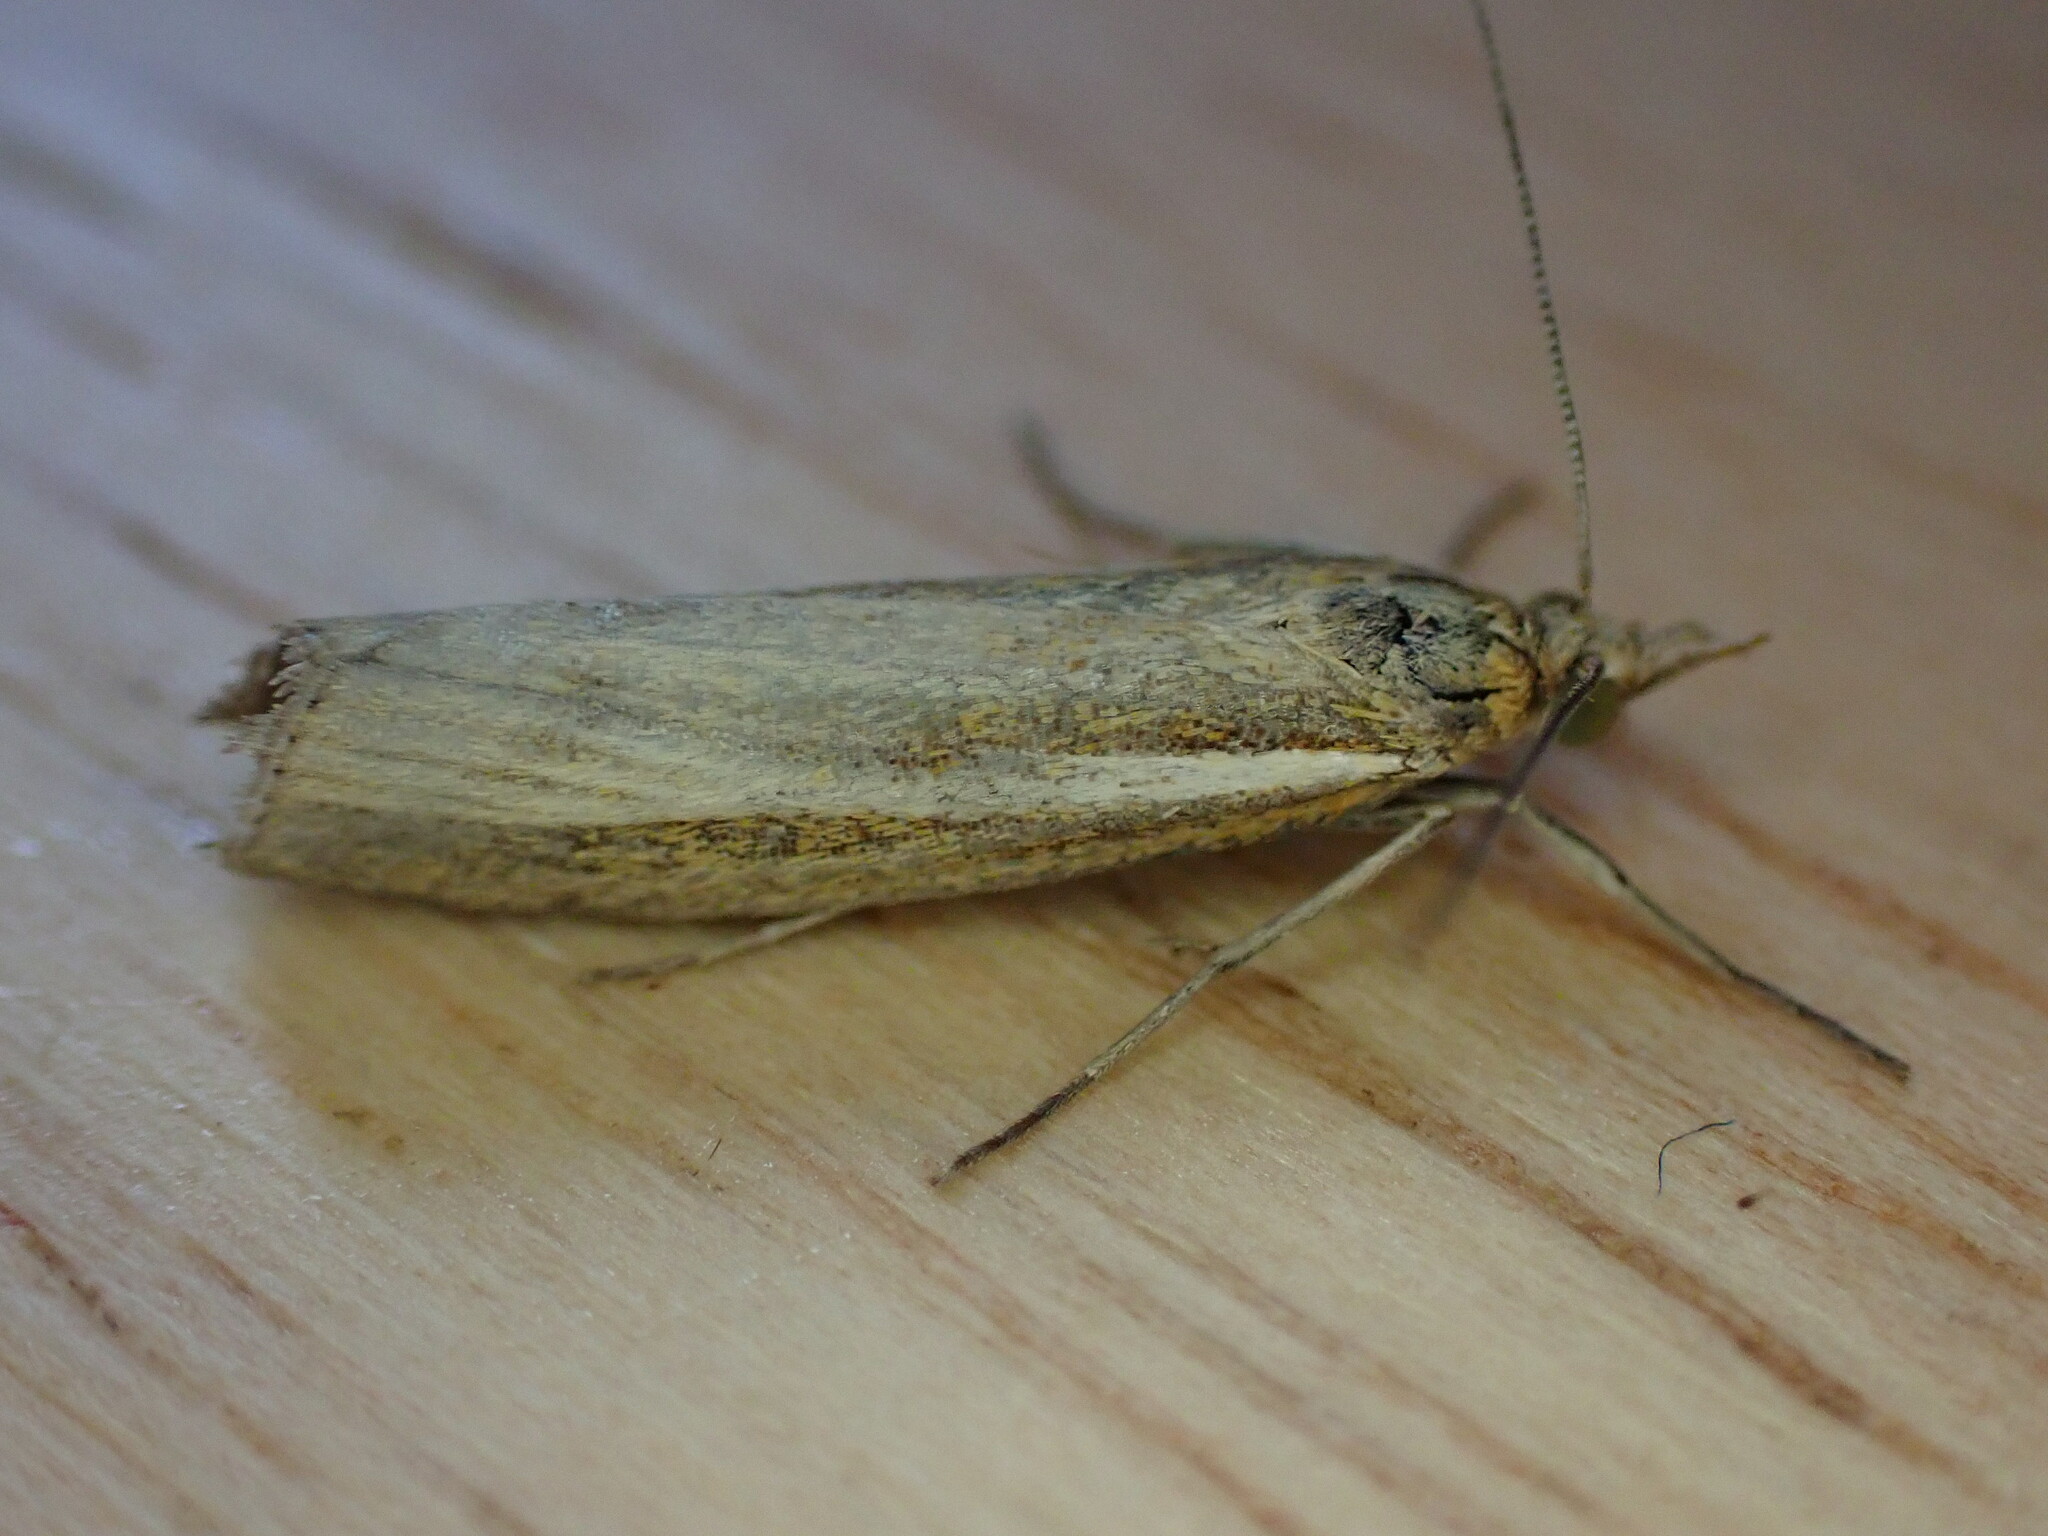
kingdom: Animalia
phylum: Arthropoda
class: Insecta
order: Lepidoptera
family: Crambidae
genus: Agriphila
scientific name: Agriphila tristellus
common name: Common grass-veneer
